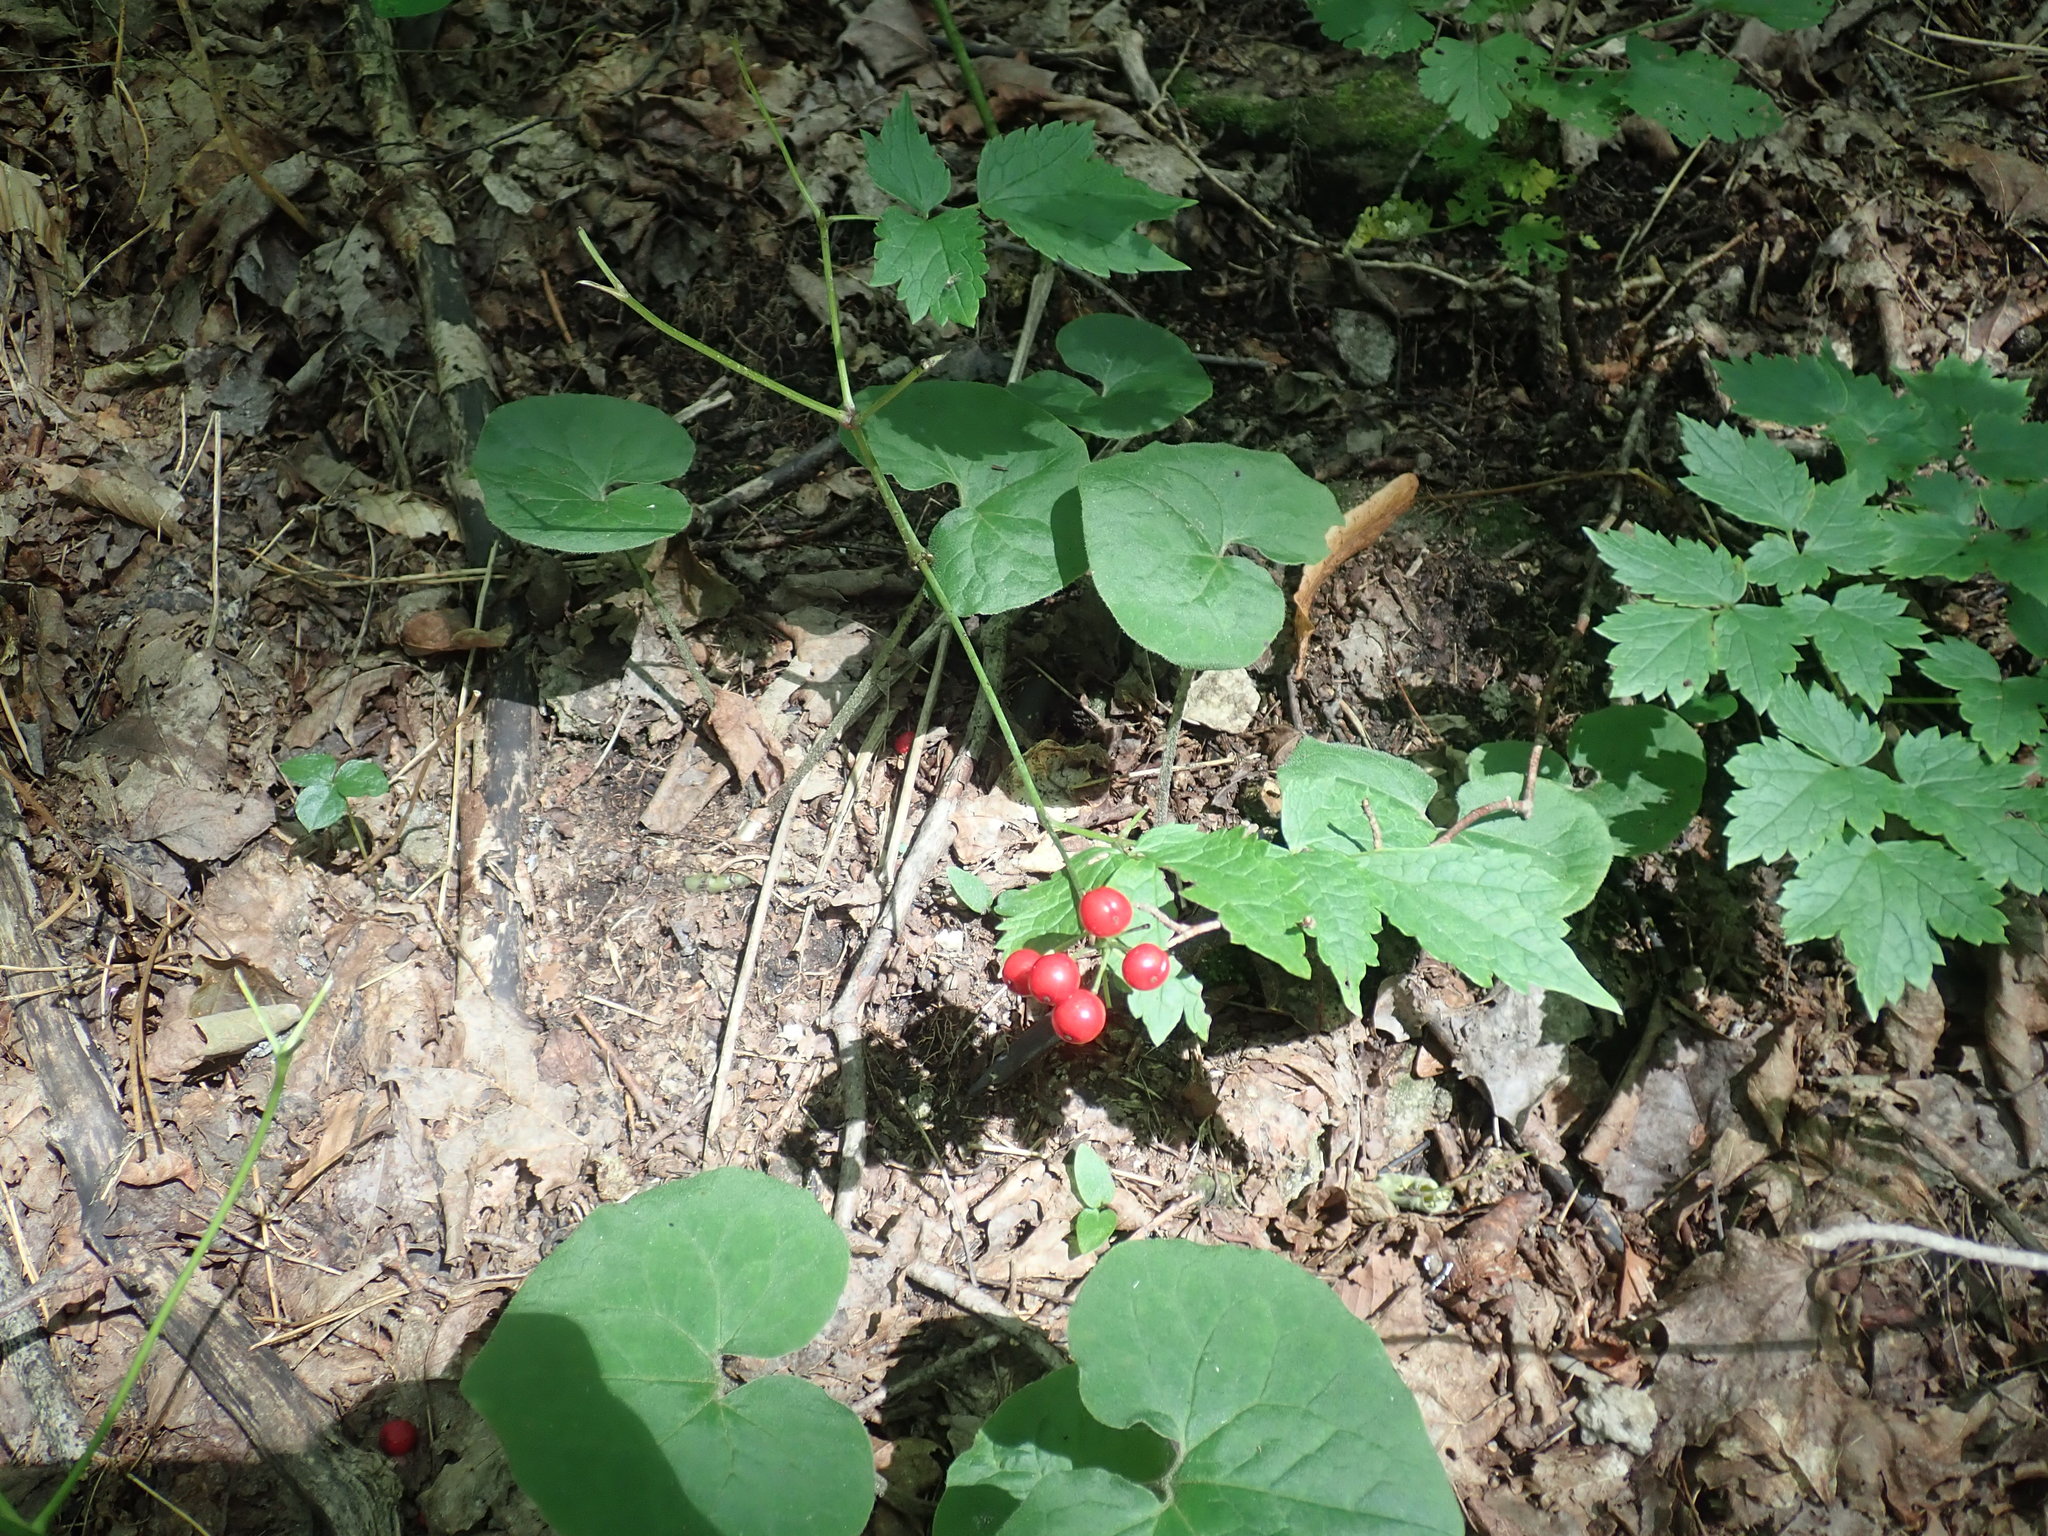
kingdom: Plantae
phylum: Tracheophyta
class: Magnoliopsida
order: Ranunculales
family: Ranunculaceae
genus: Actaea
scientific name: Actaea rubra
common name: Red baneberry
